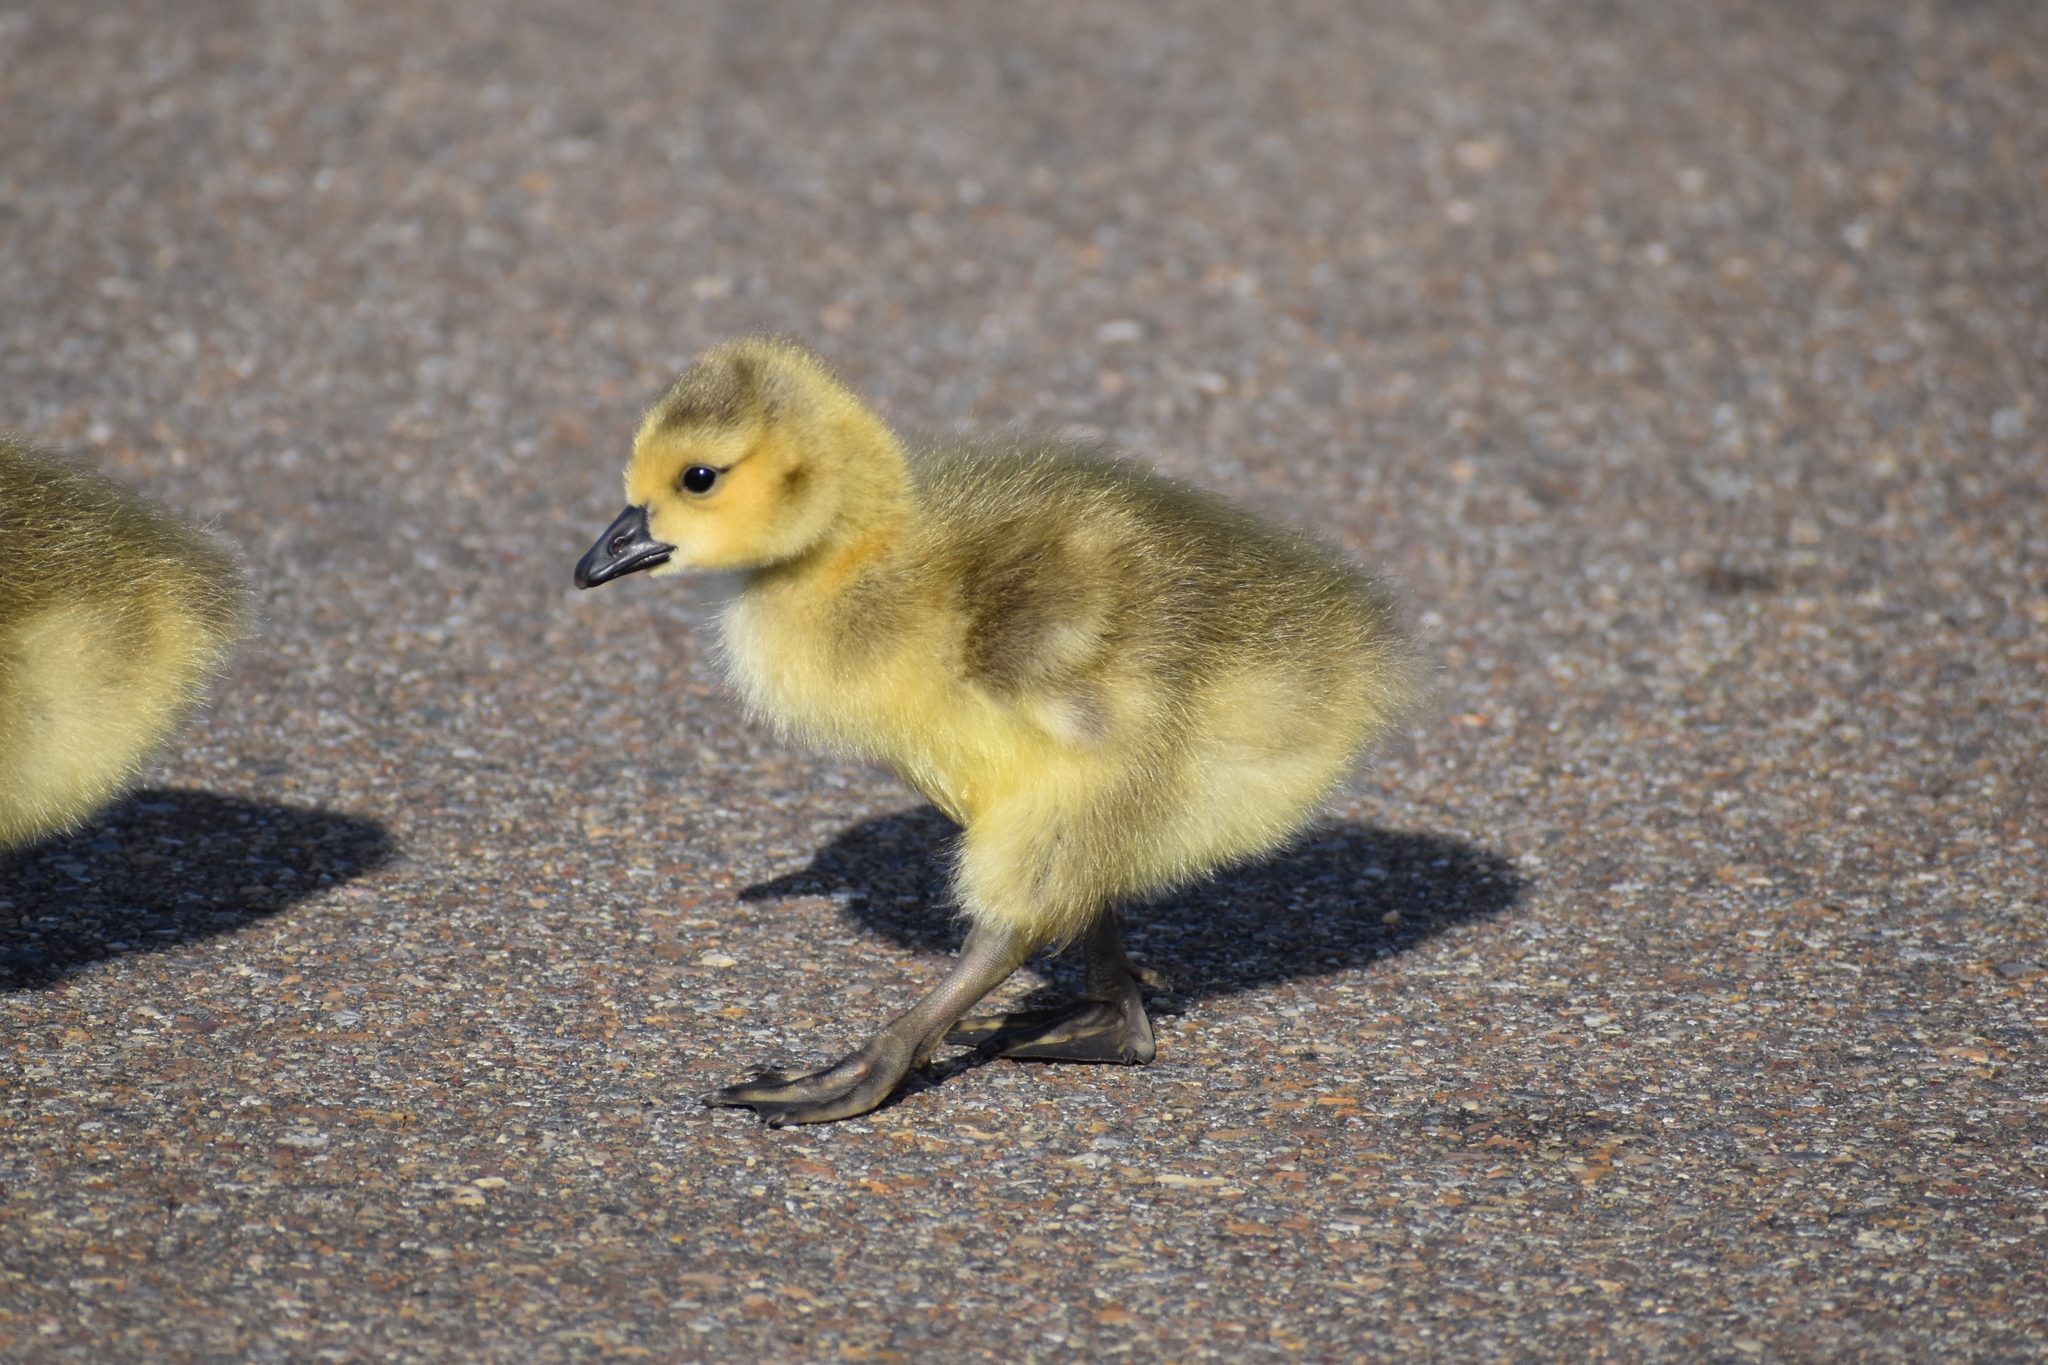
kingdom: Animalia
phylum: Chordata
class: Aves
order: Anseriformes
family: Anatidae
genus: Branta
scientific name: Branta canadensis
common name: Canada goose
